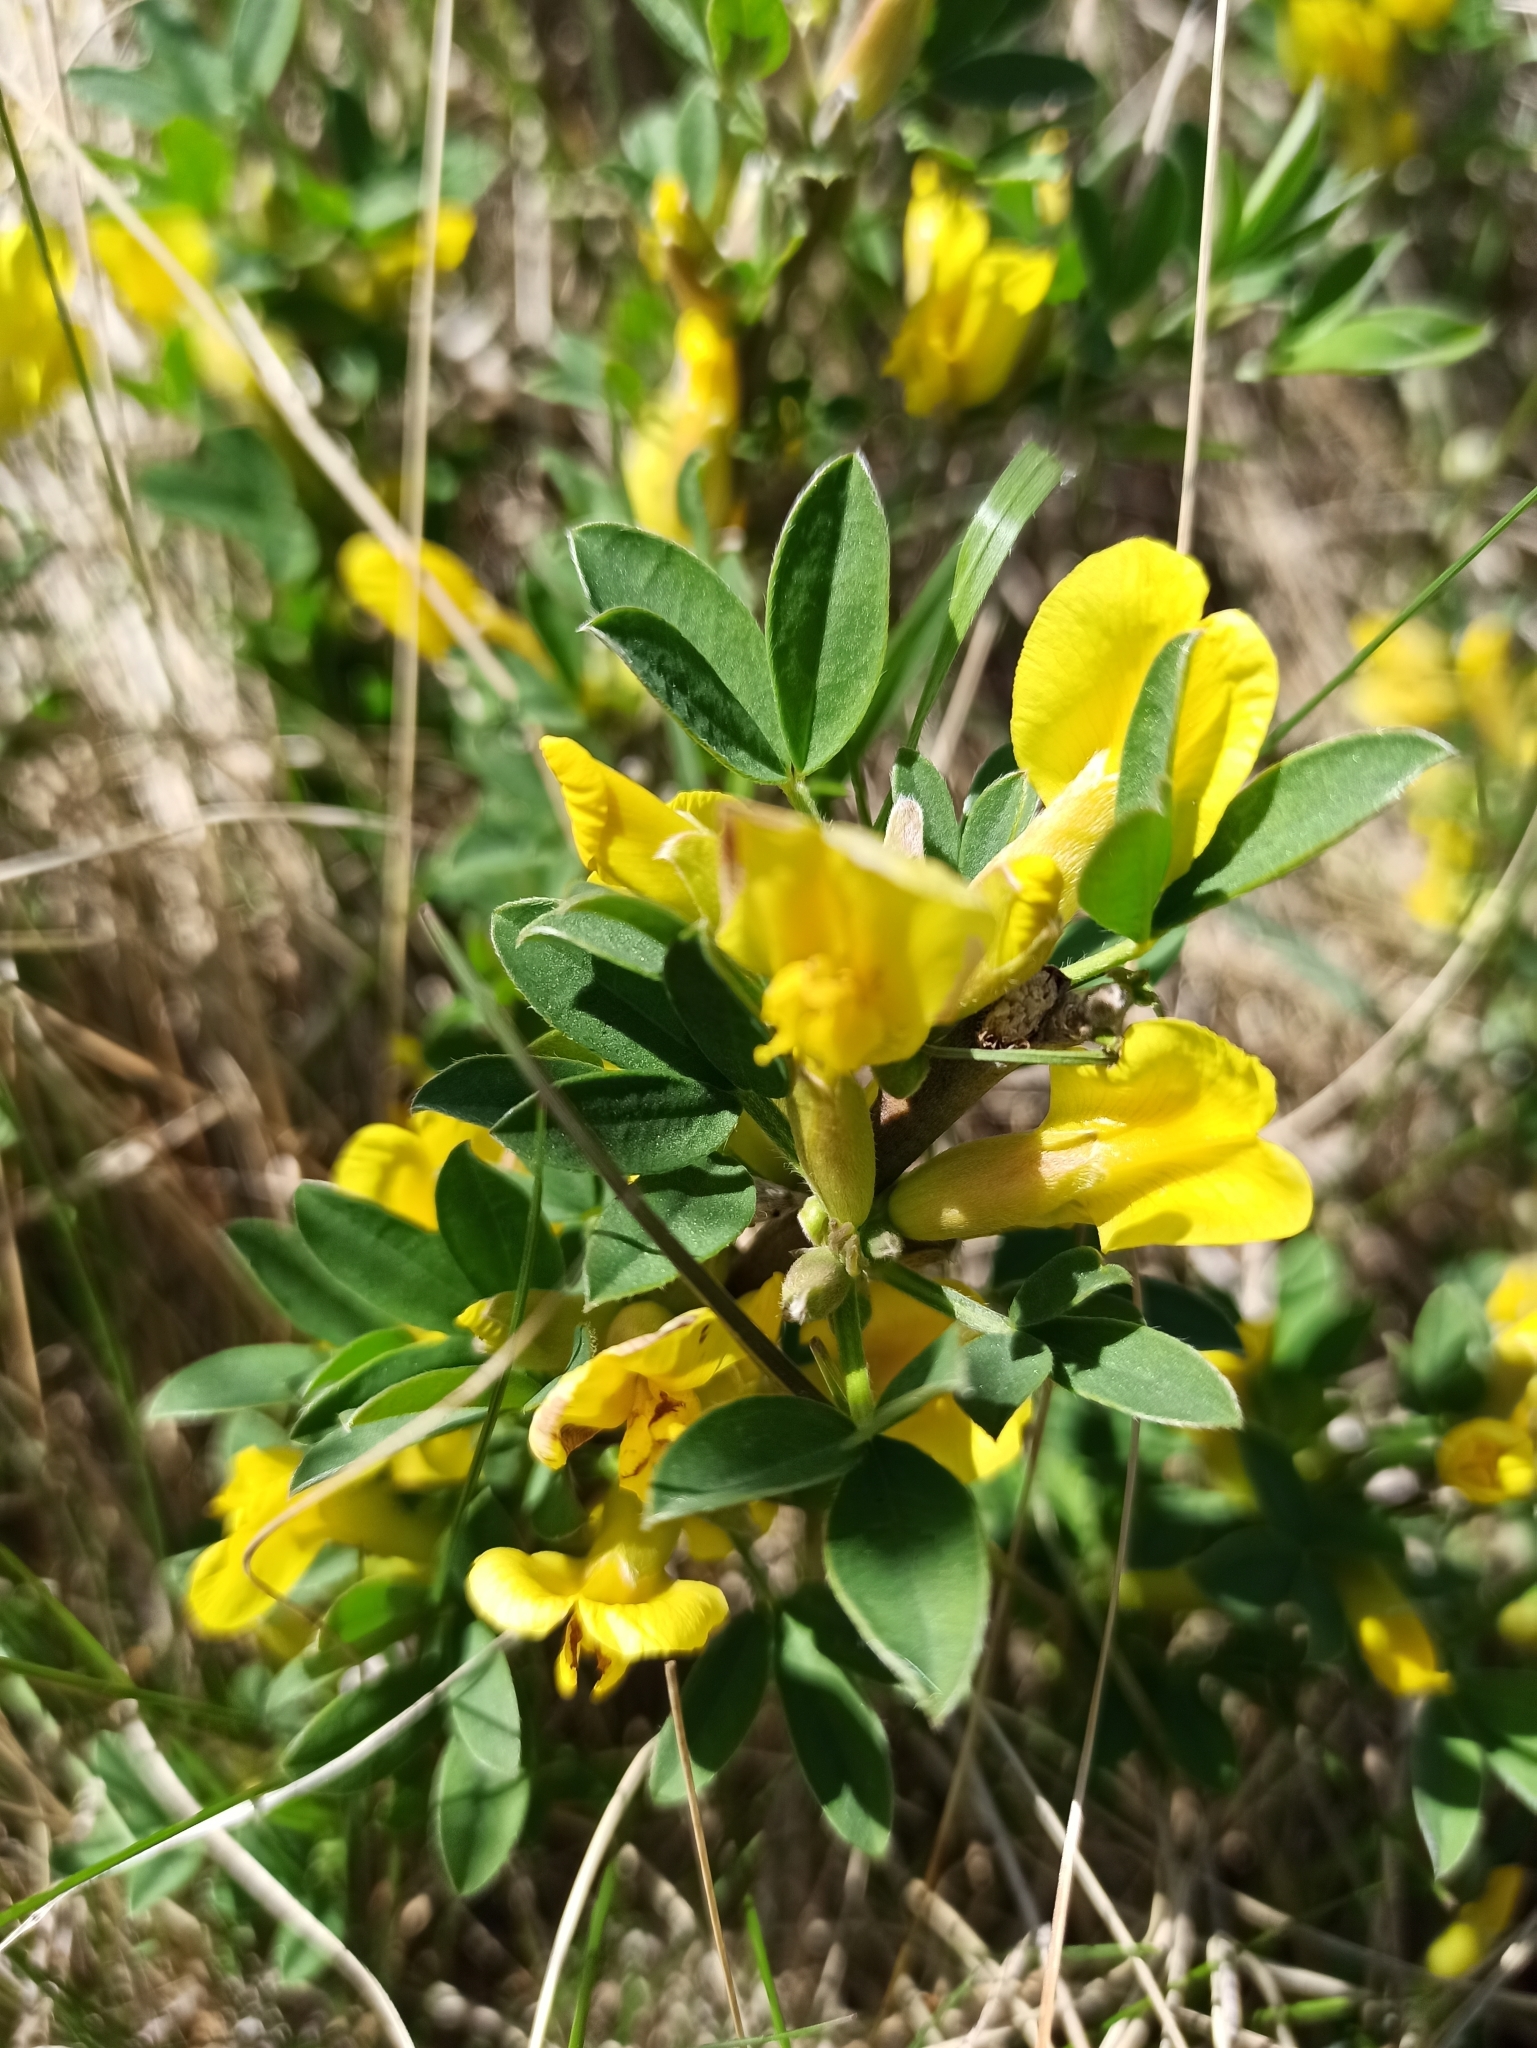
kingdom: Plantae
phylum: Tracheophyta
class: Magnoliopsida
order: Fabales
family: Fabaceae
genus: Chamaecytisus
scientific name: Chamaecytisus ratisbonensis
